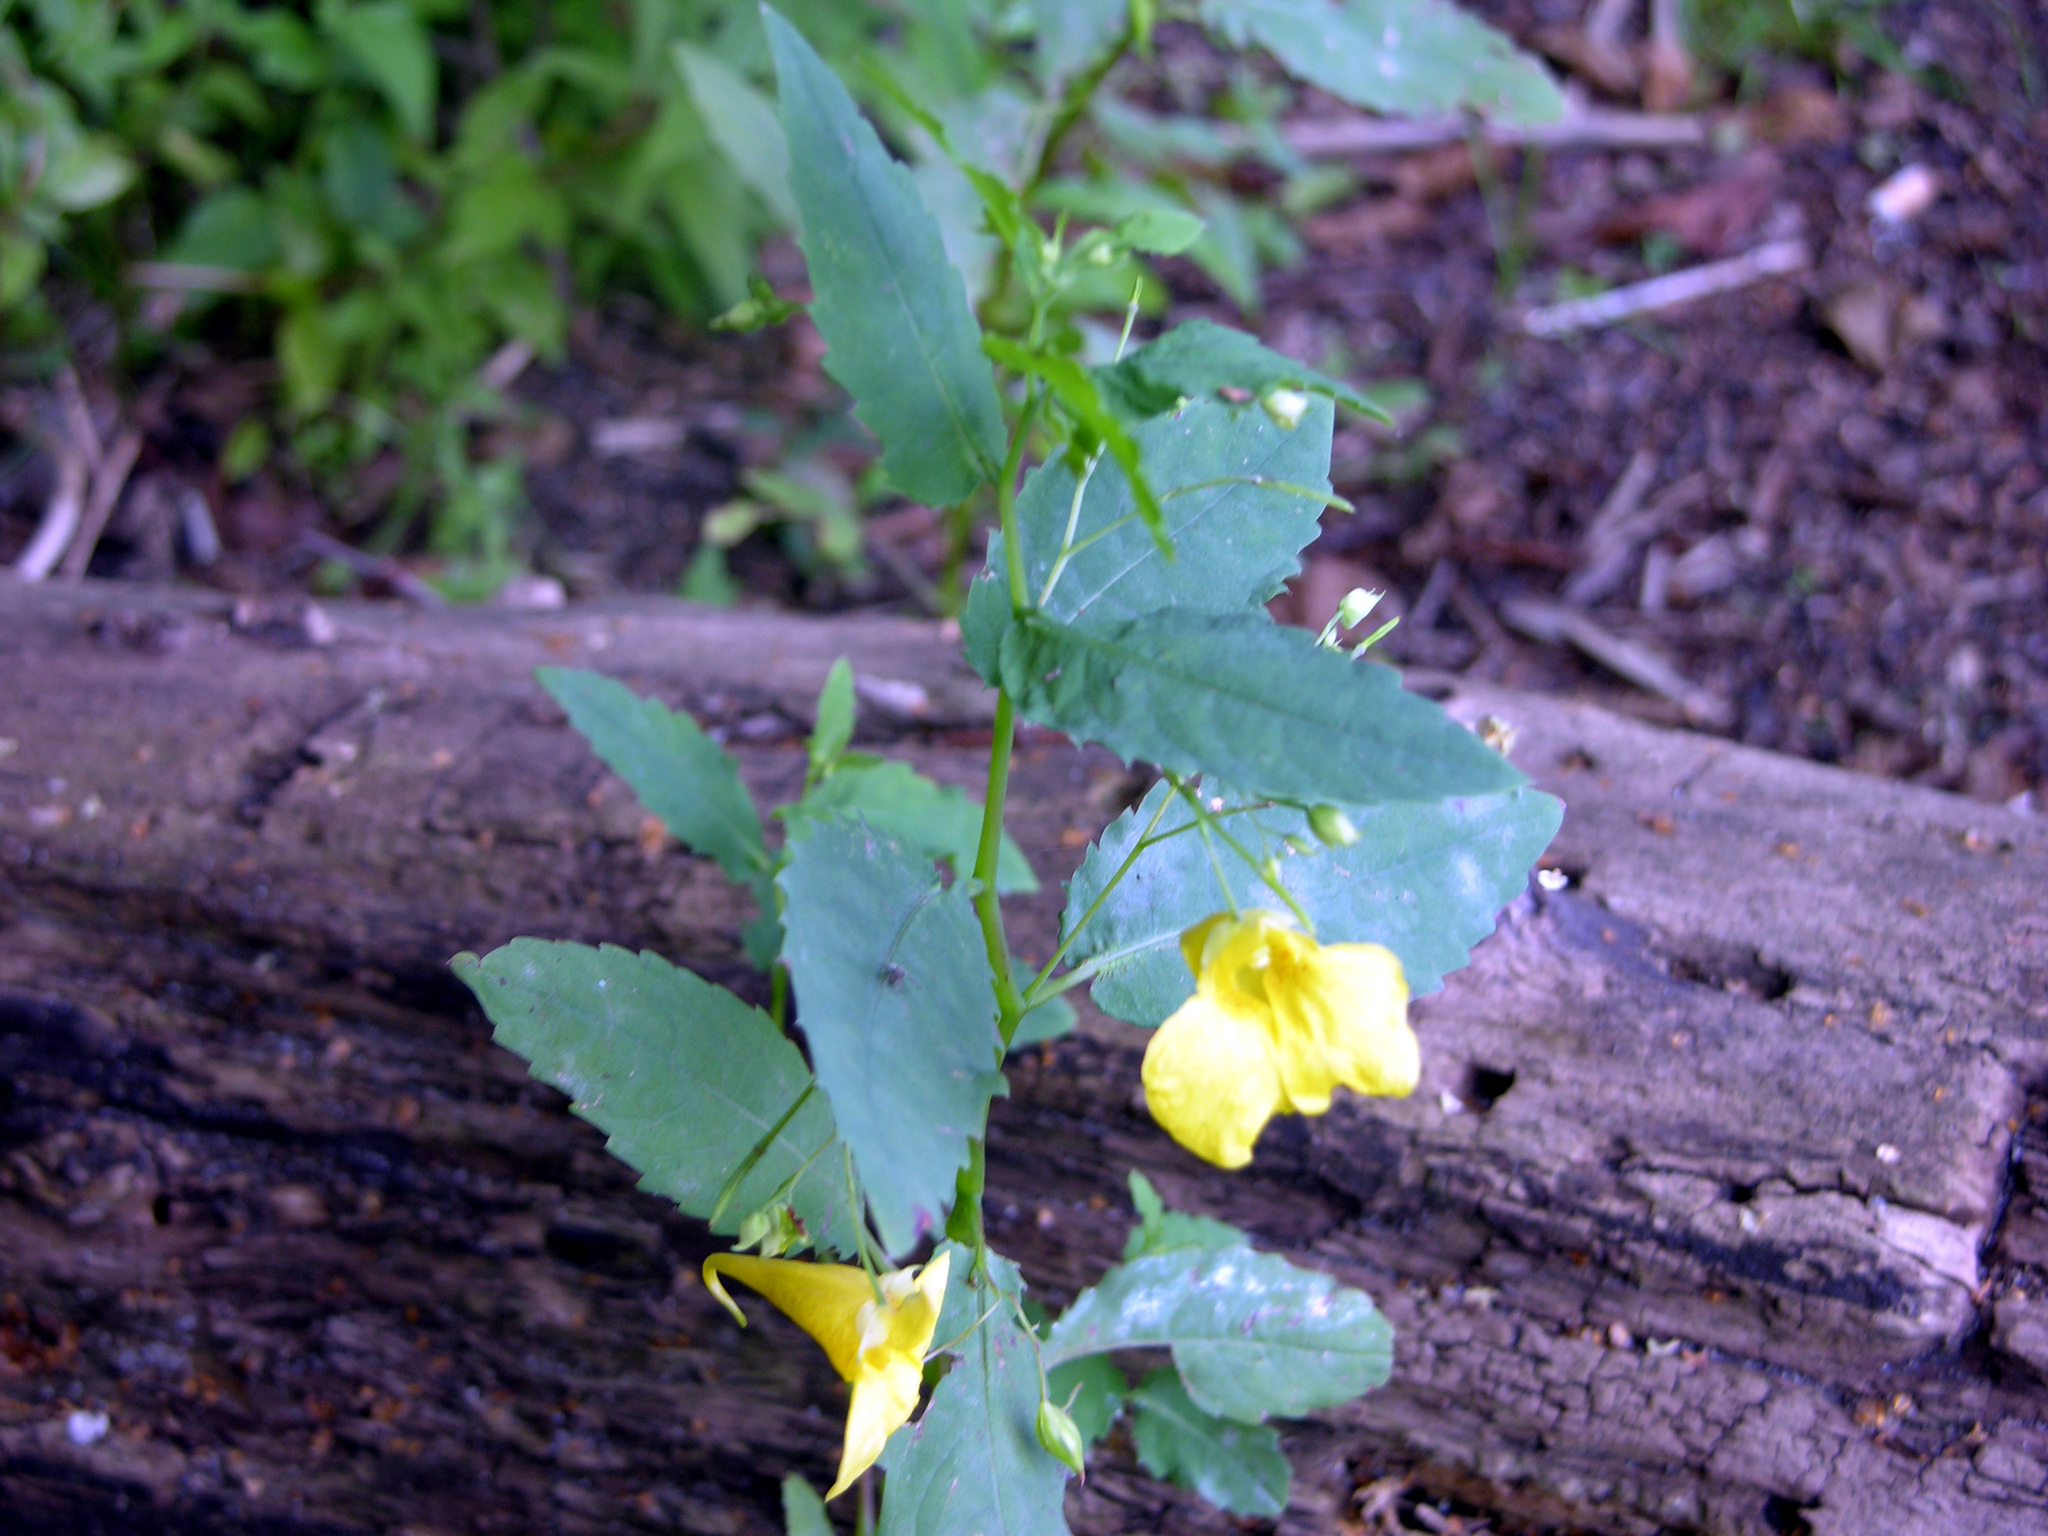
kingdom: Plantae
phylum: Tracheophyta
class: Magnoliopsida
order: Ericales
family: Balsaminaceae
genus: Impatiens
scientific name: Impatiens noli-tangere
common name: Touch-me-not balsam
